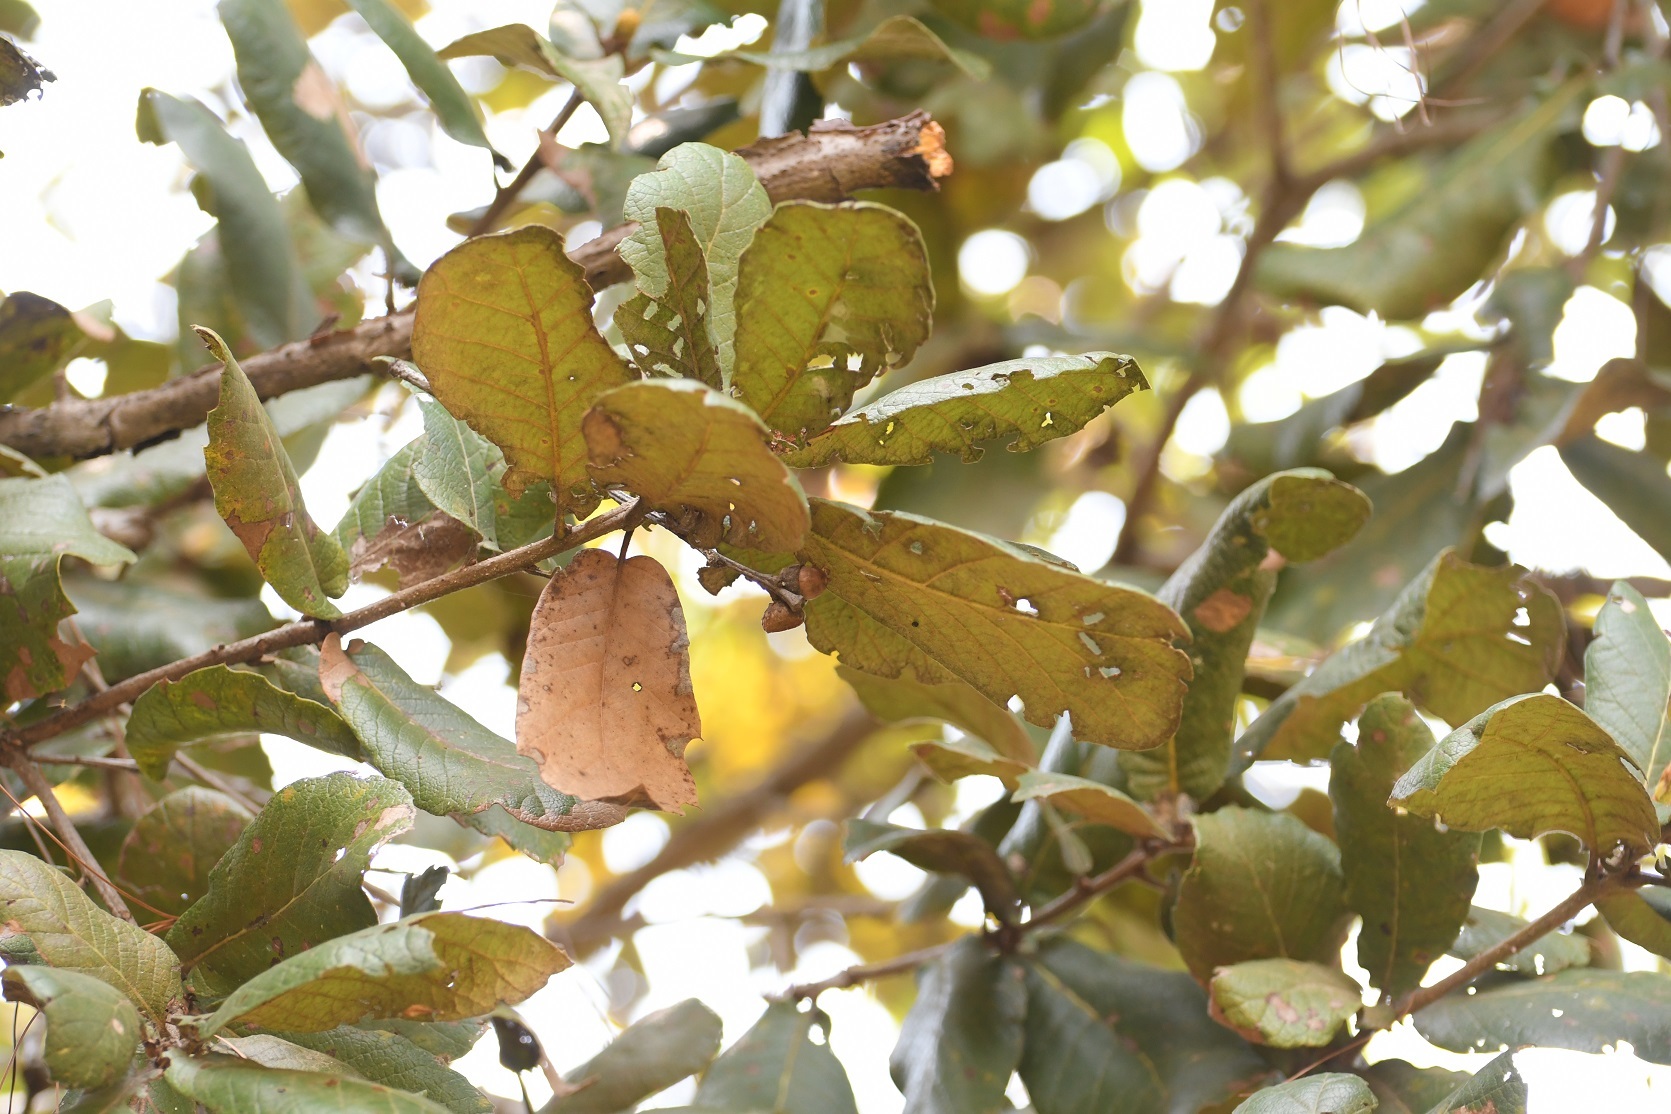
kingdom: Plantae
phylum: Tracheophyta
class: Magnoliopsida
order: Fagales
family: Fagaceae
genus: Quercus
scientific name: Quercus rugosa
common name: Netleaf oak
